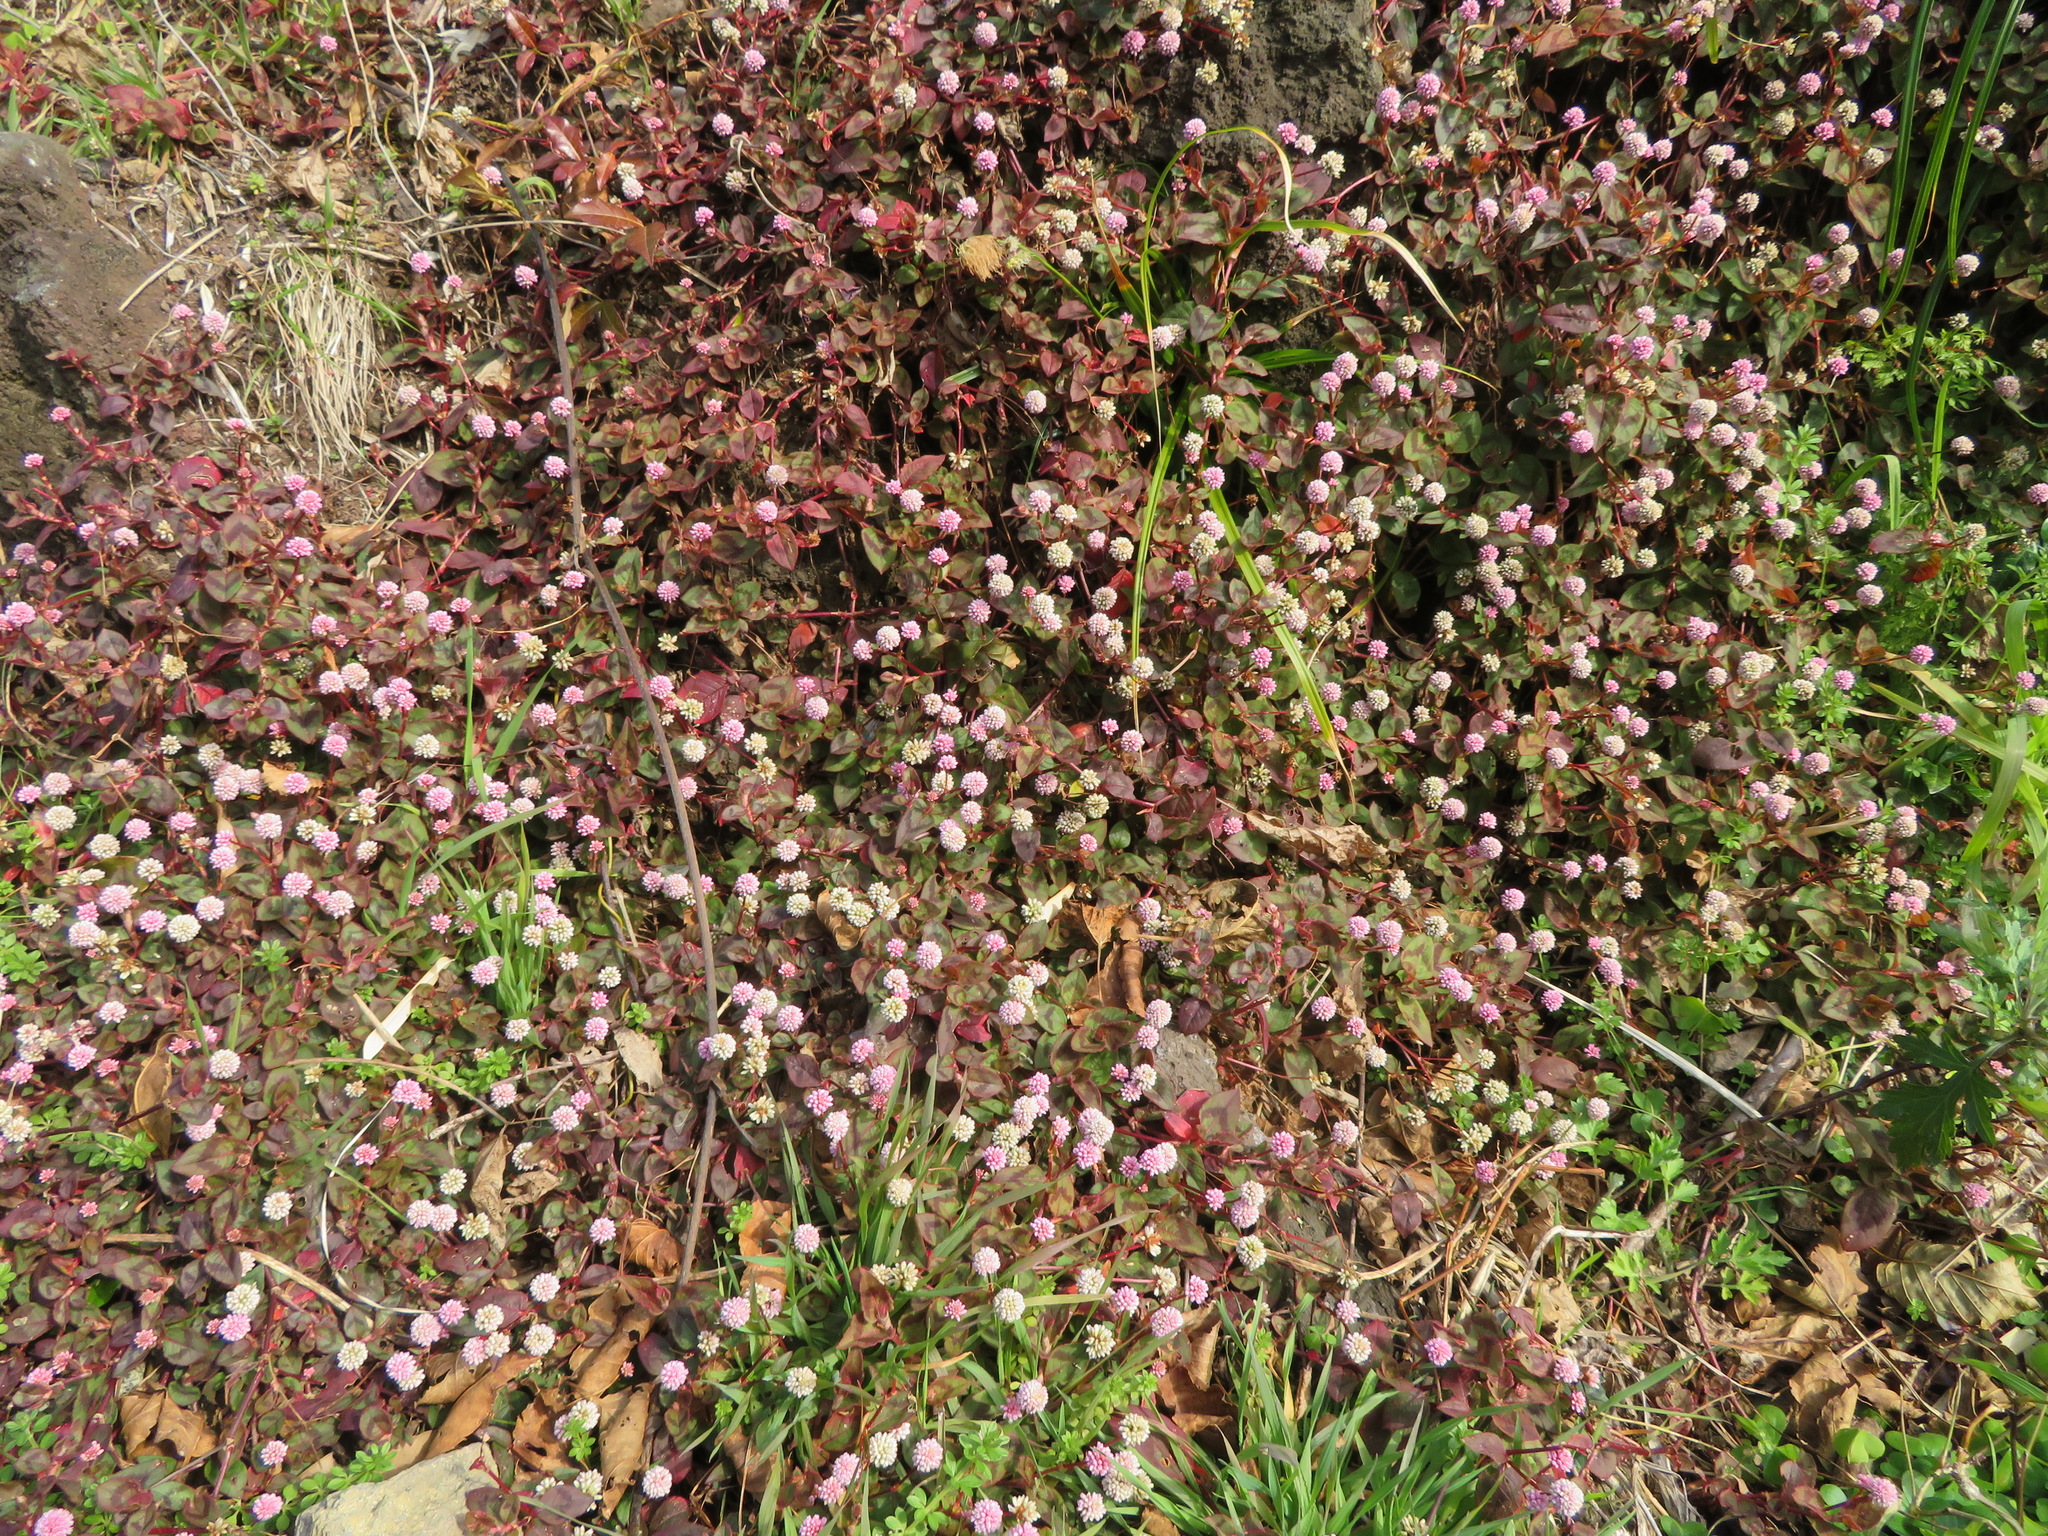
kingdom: Plantae
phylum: Tracheophyta
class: Magnoliopsida
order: Caryophyllales
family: Polygonaceae
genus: Persicaria
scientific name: Persicaria capitata
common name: Pinkhead smartweed
